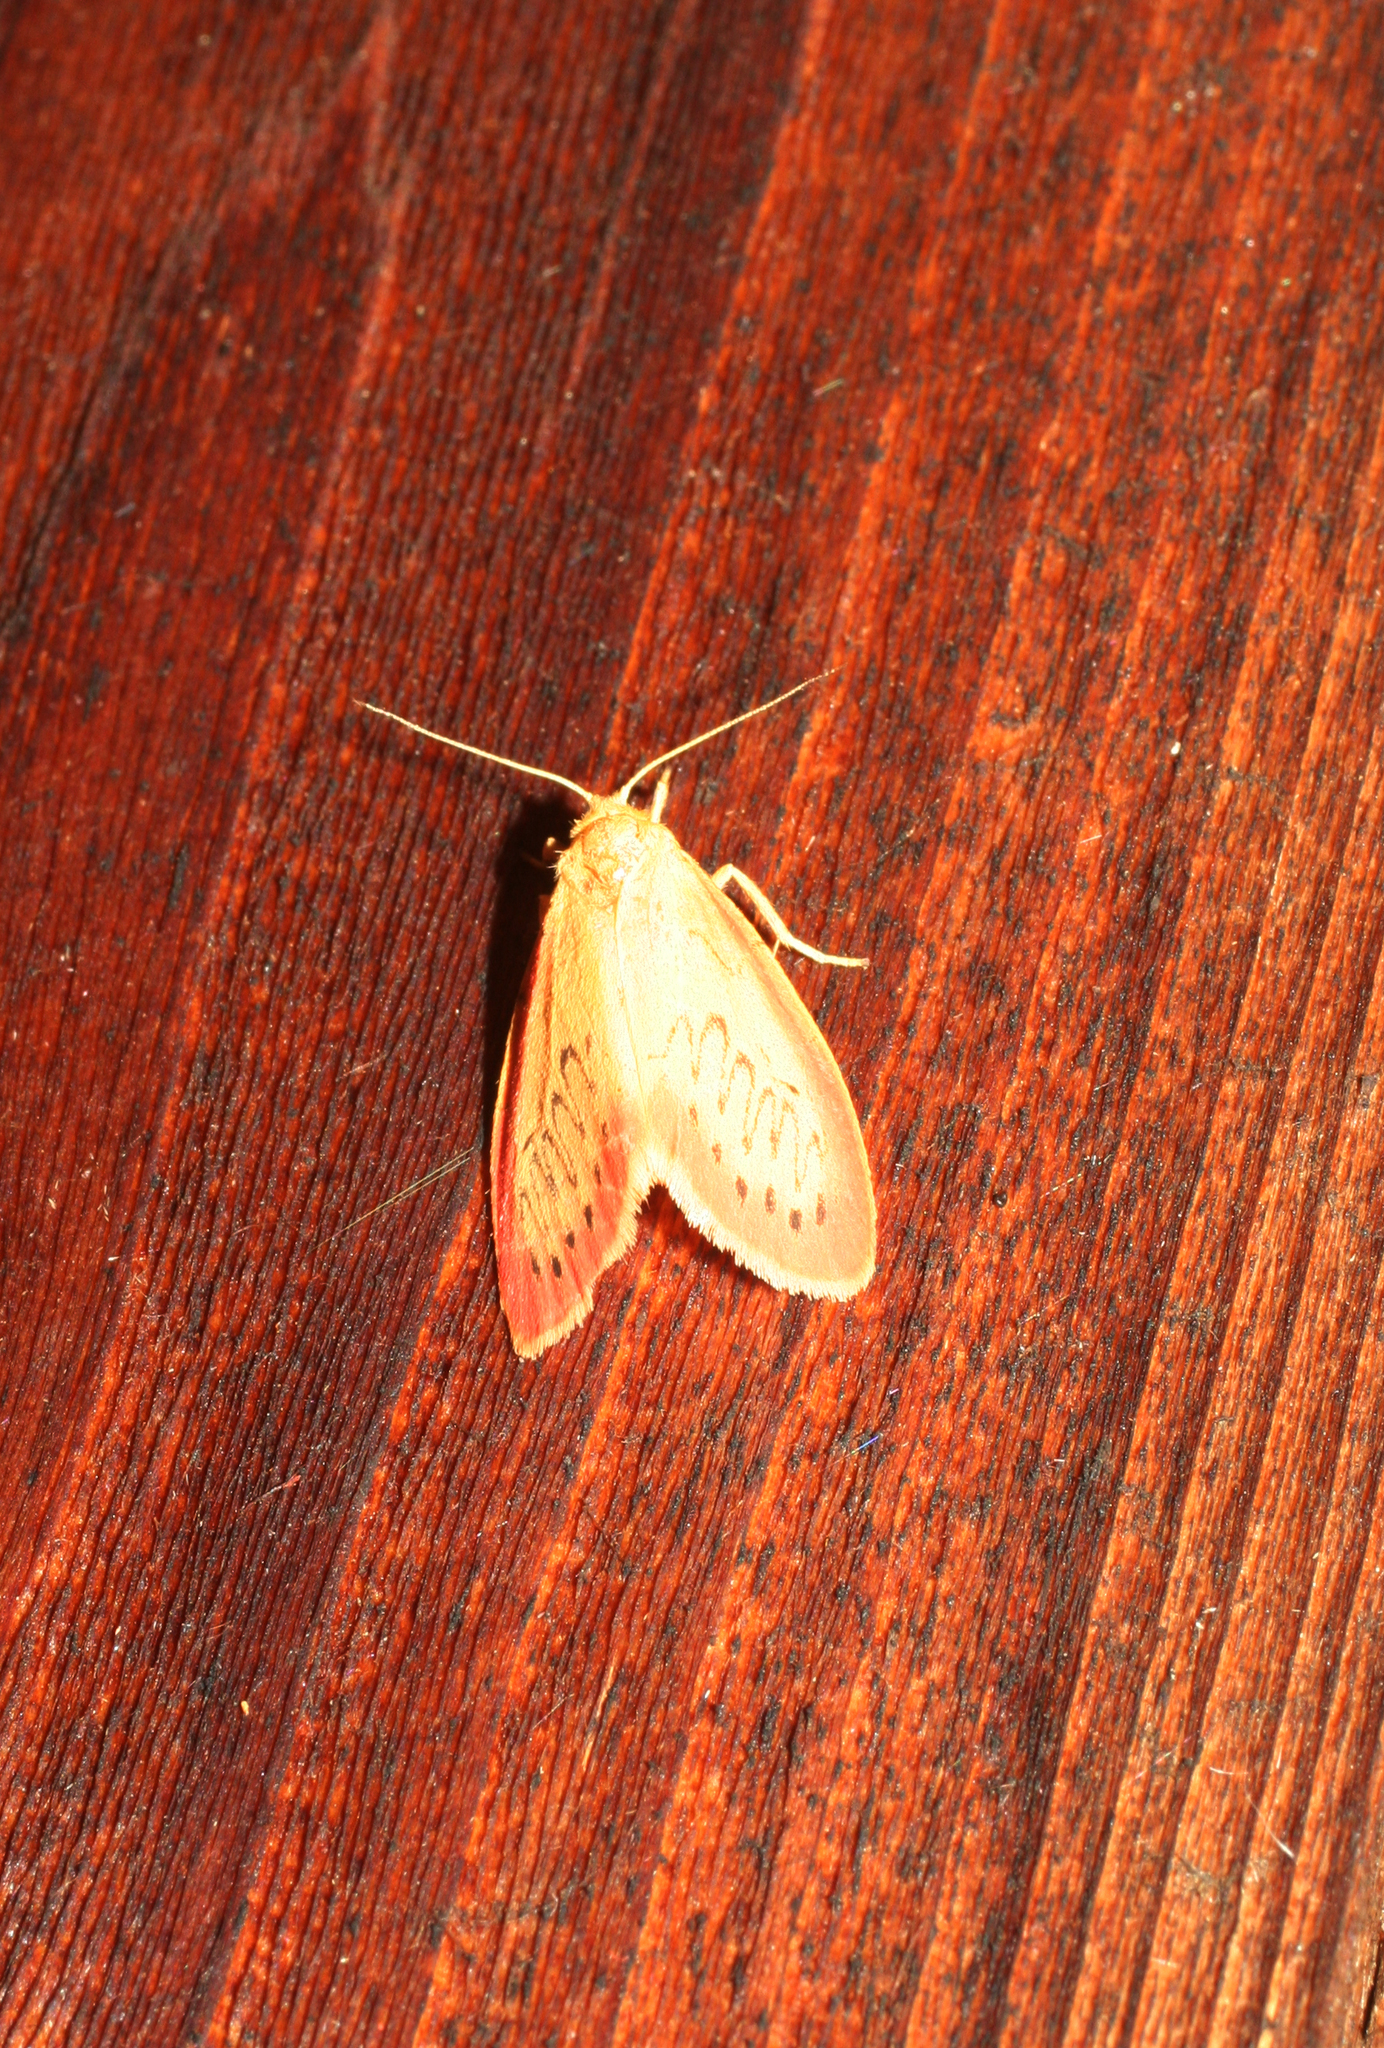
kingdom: Animalia
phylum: Arthropoda
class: Insecta
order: Lepidoptera
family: Erebidae
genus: Miltochrista
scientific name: Miltochrista miniata
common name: Rosy footman
